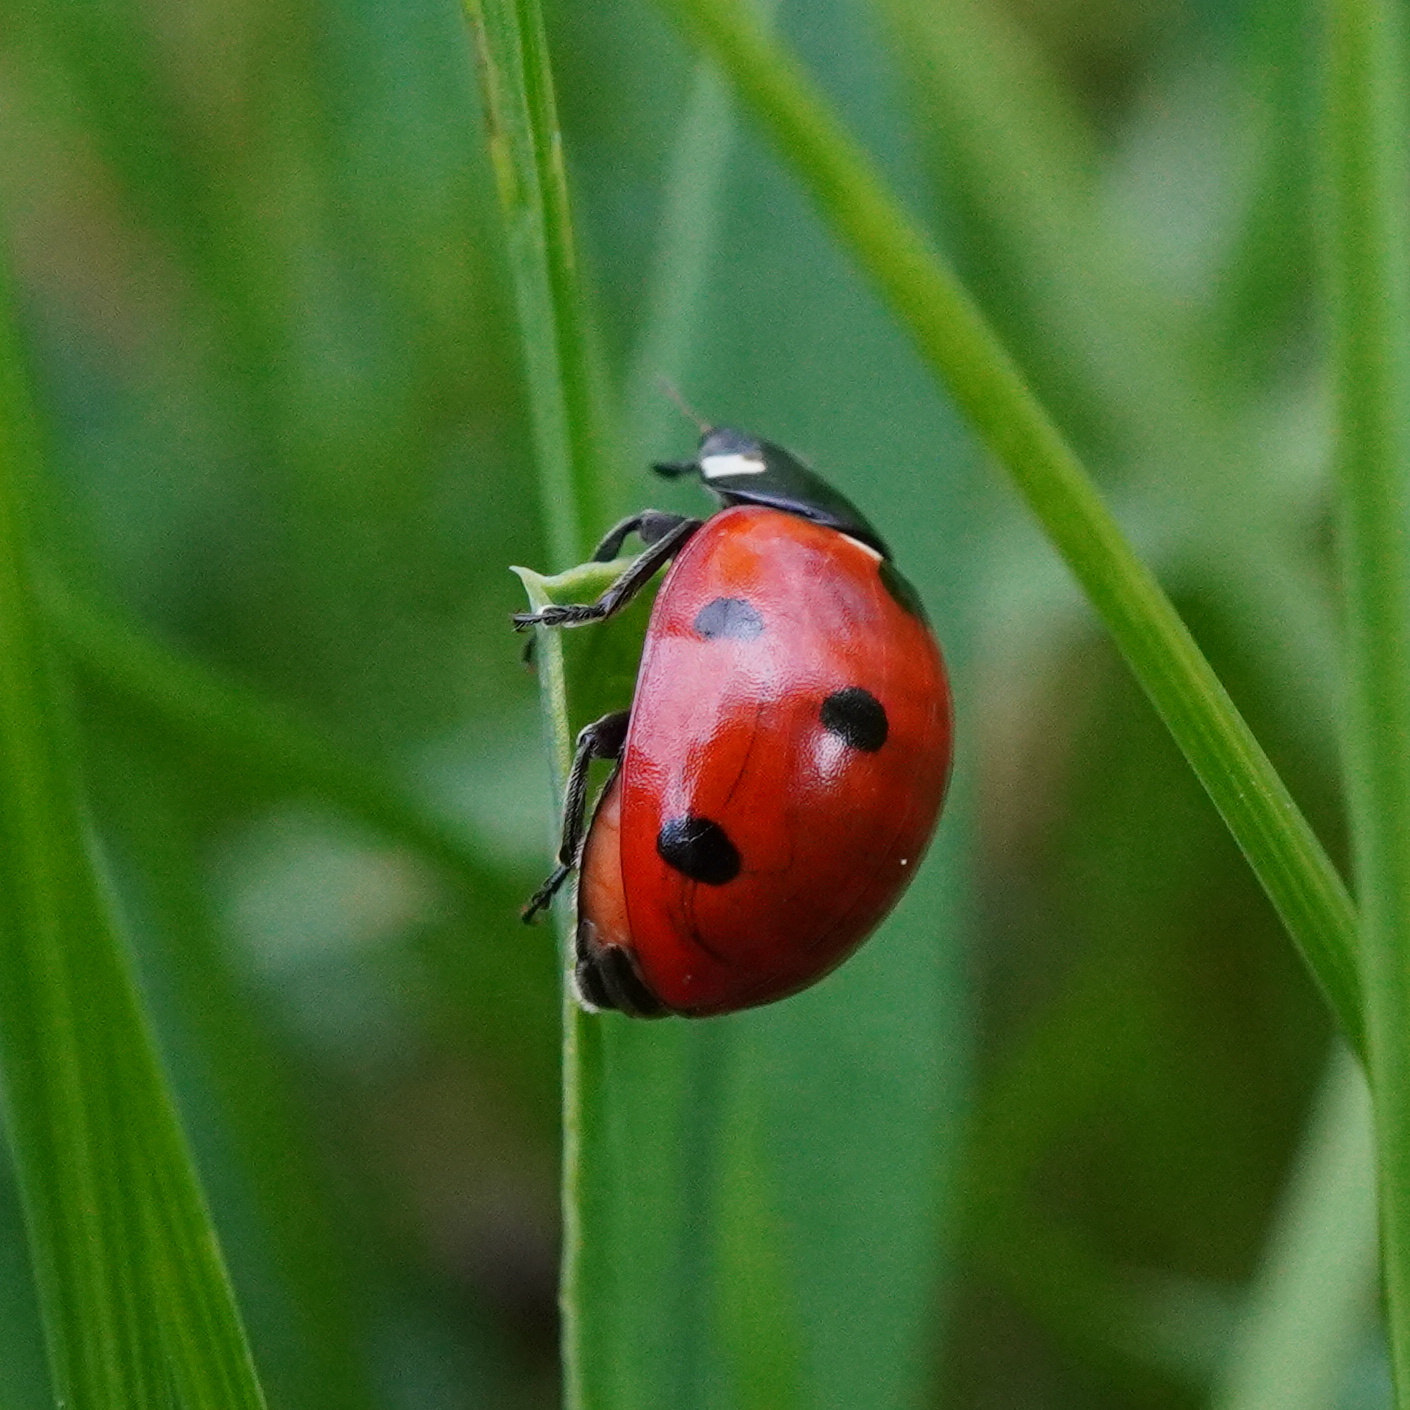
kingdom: Animalia
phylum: Arthropoda
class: Insecta
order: Coleoptera
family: Coccinellidae
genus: Coccinella
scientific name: Coccinella septempunctata
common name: Sevenspotted lady beetle
